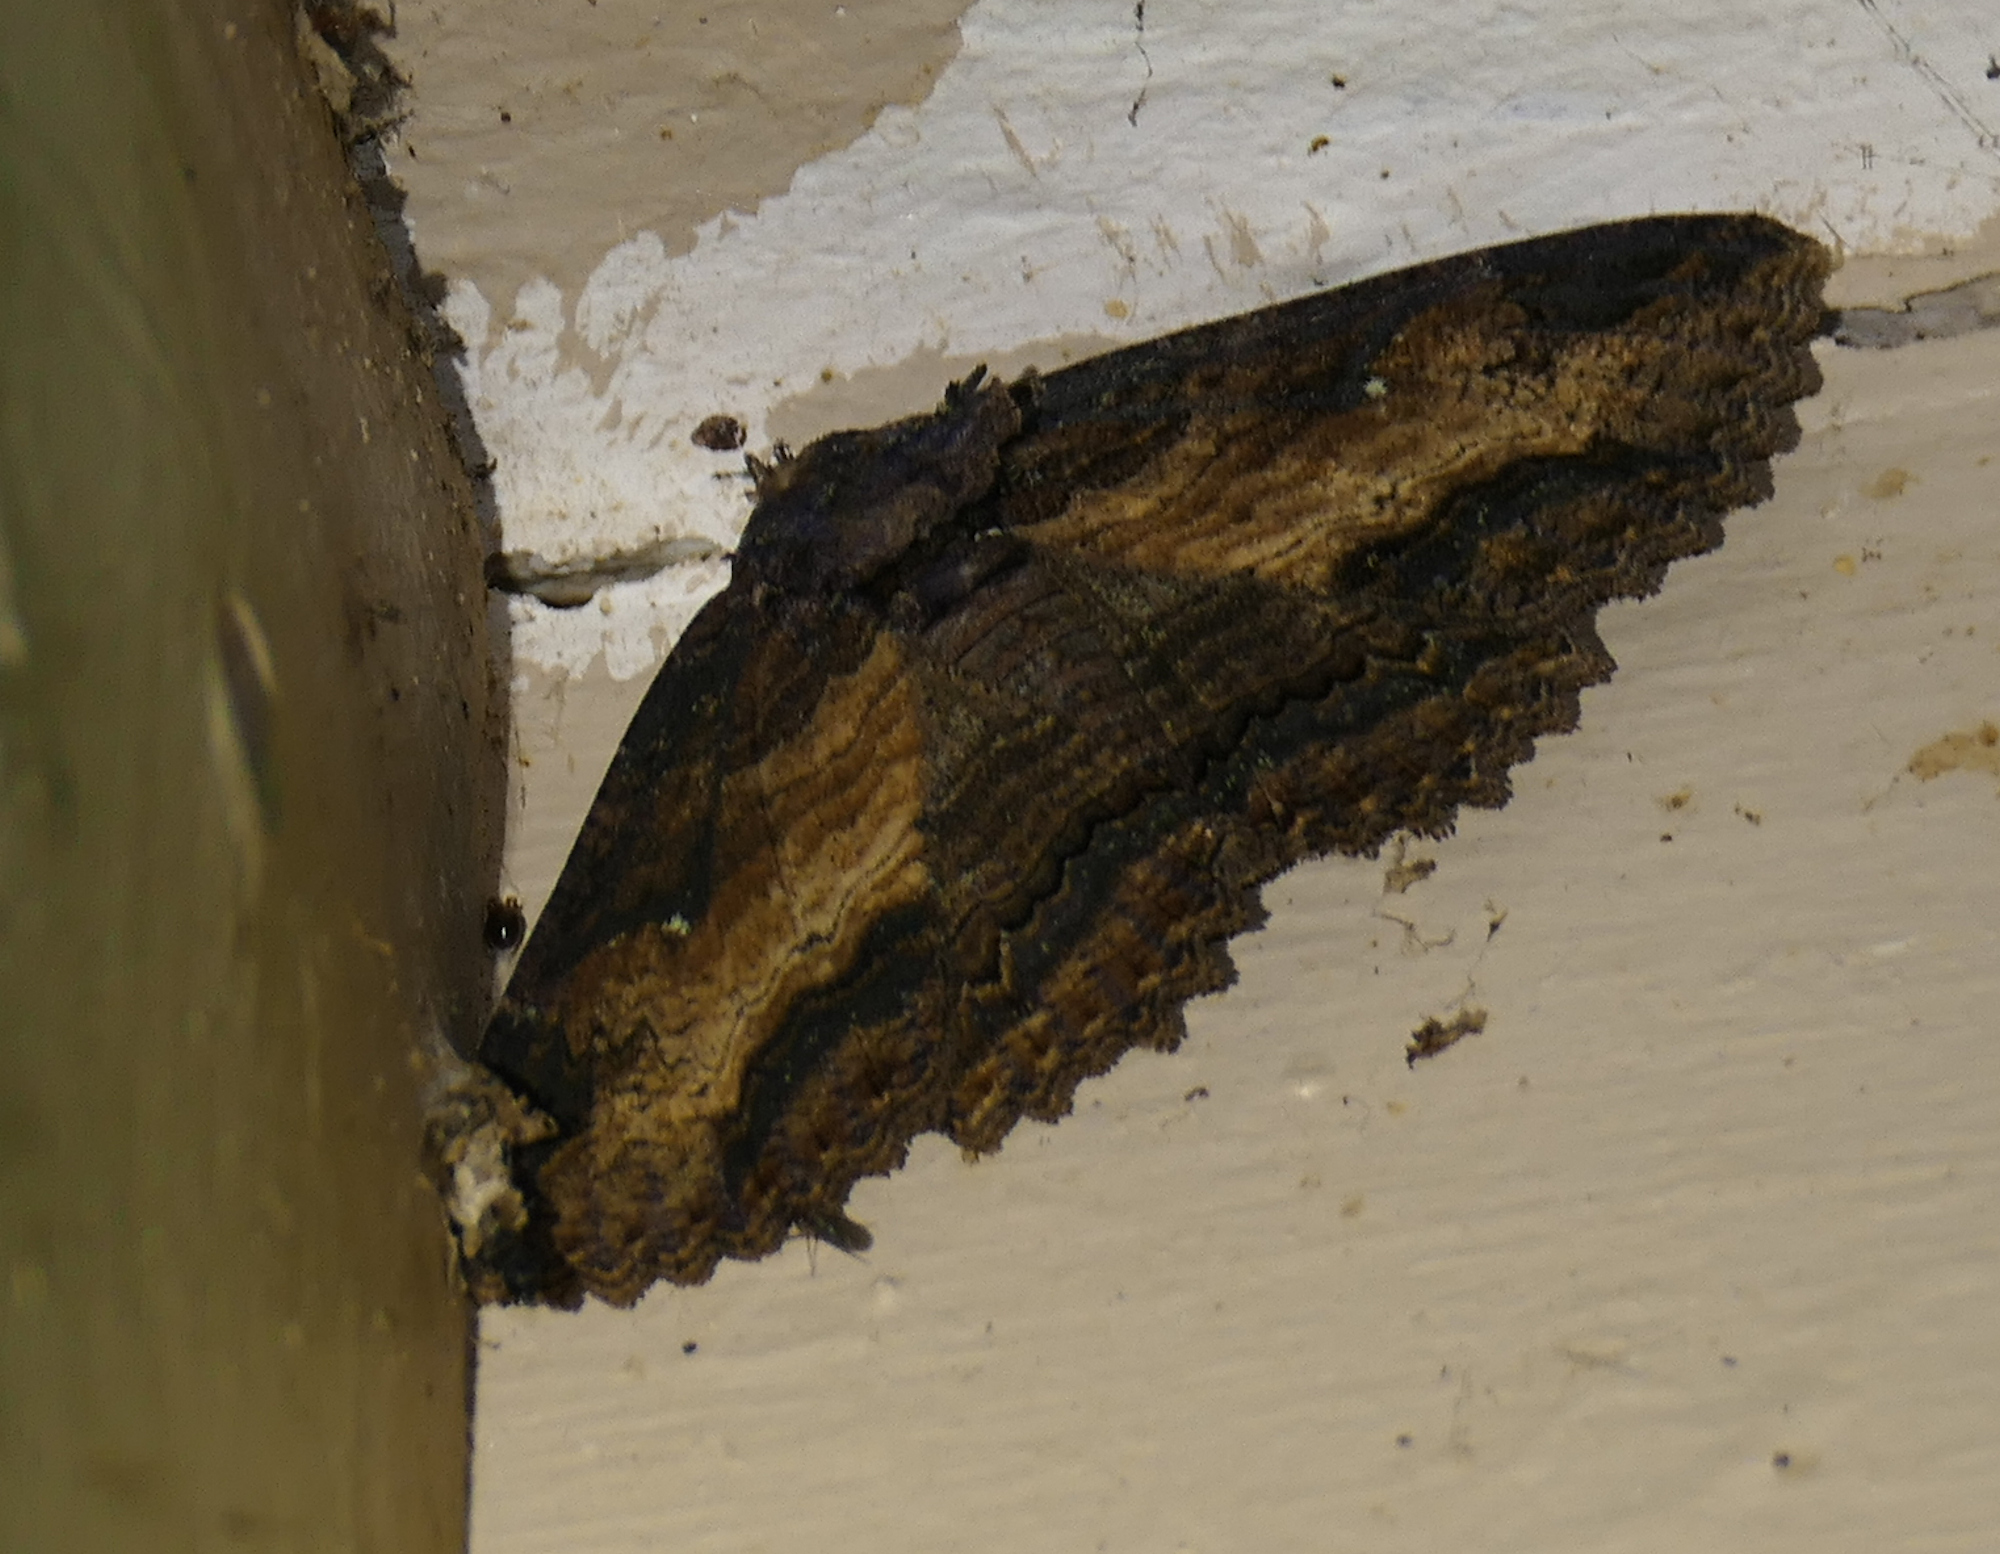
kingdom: Animalia
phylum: Arthropoda
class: Insecta
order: Lepidoptera
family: Erebidae
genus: Zale
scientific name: Zale lunata
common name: Lunate zale moth
